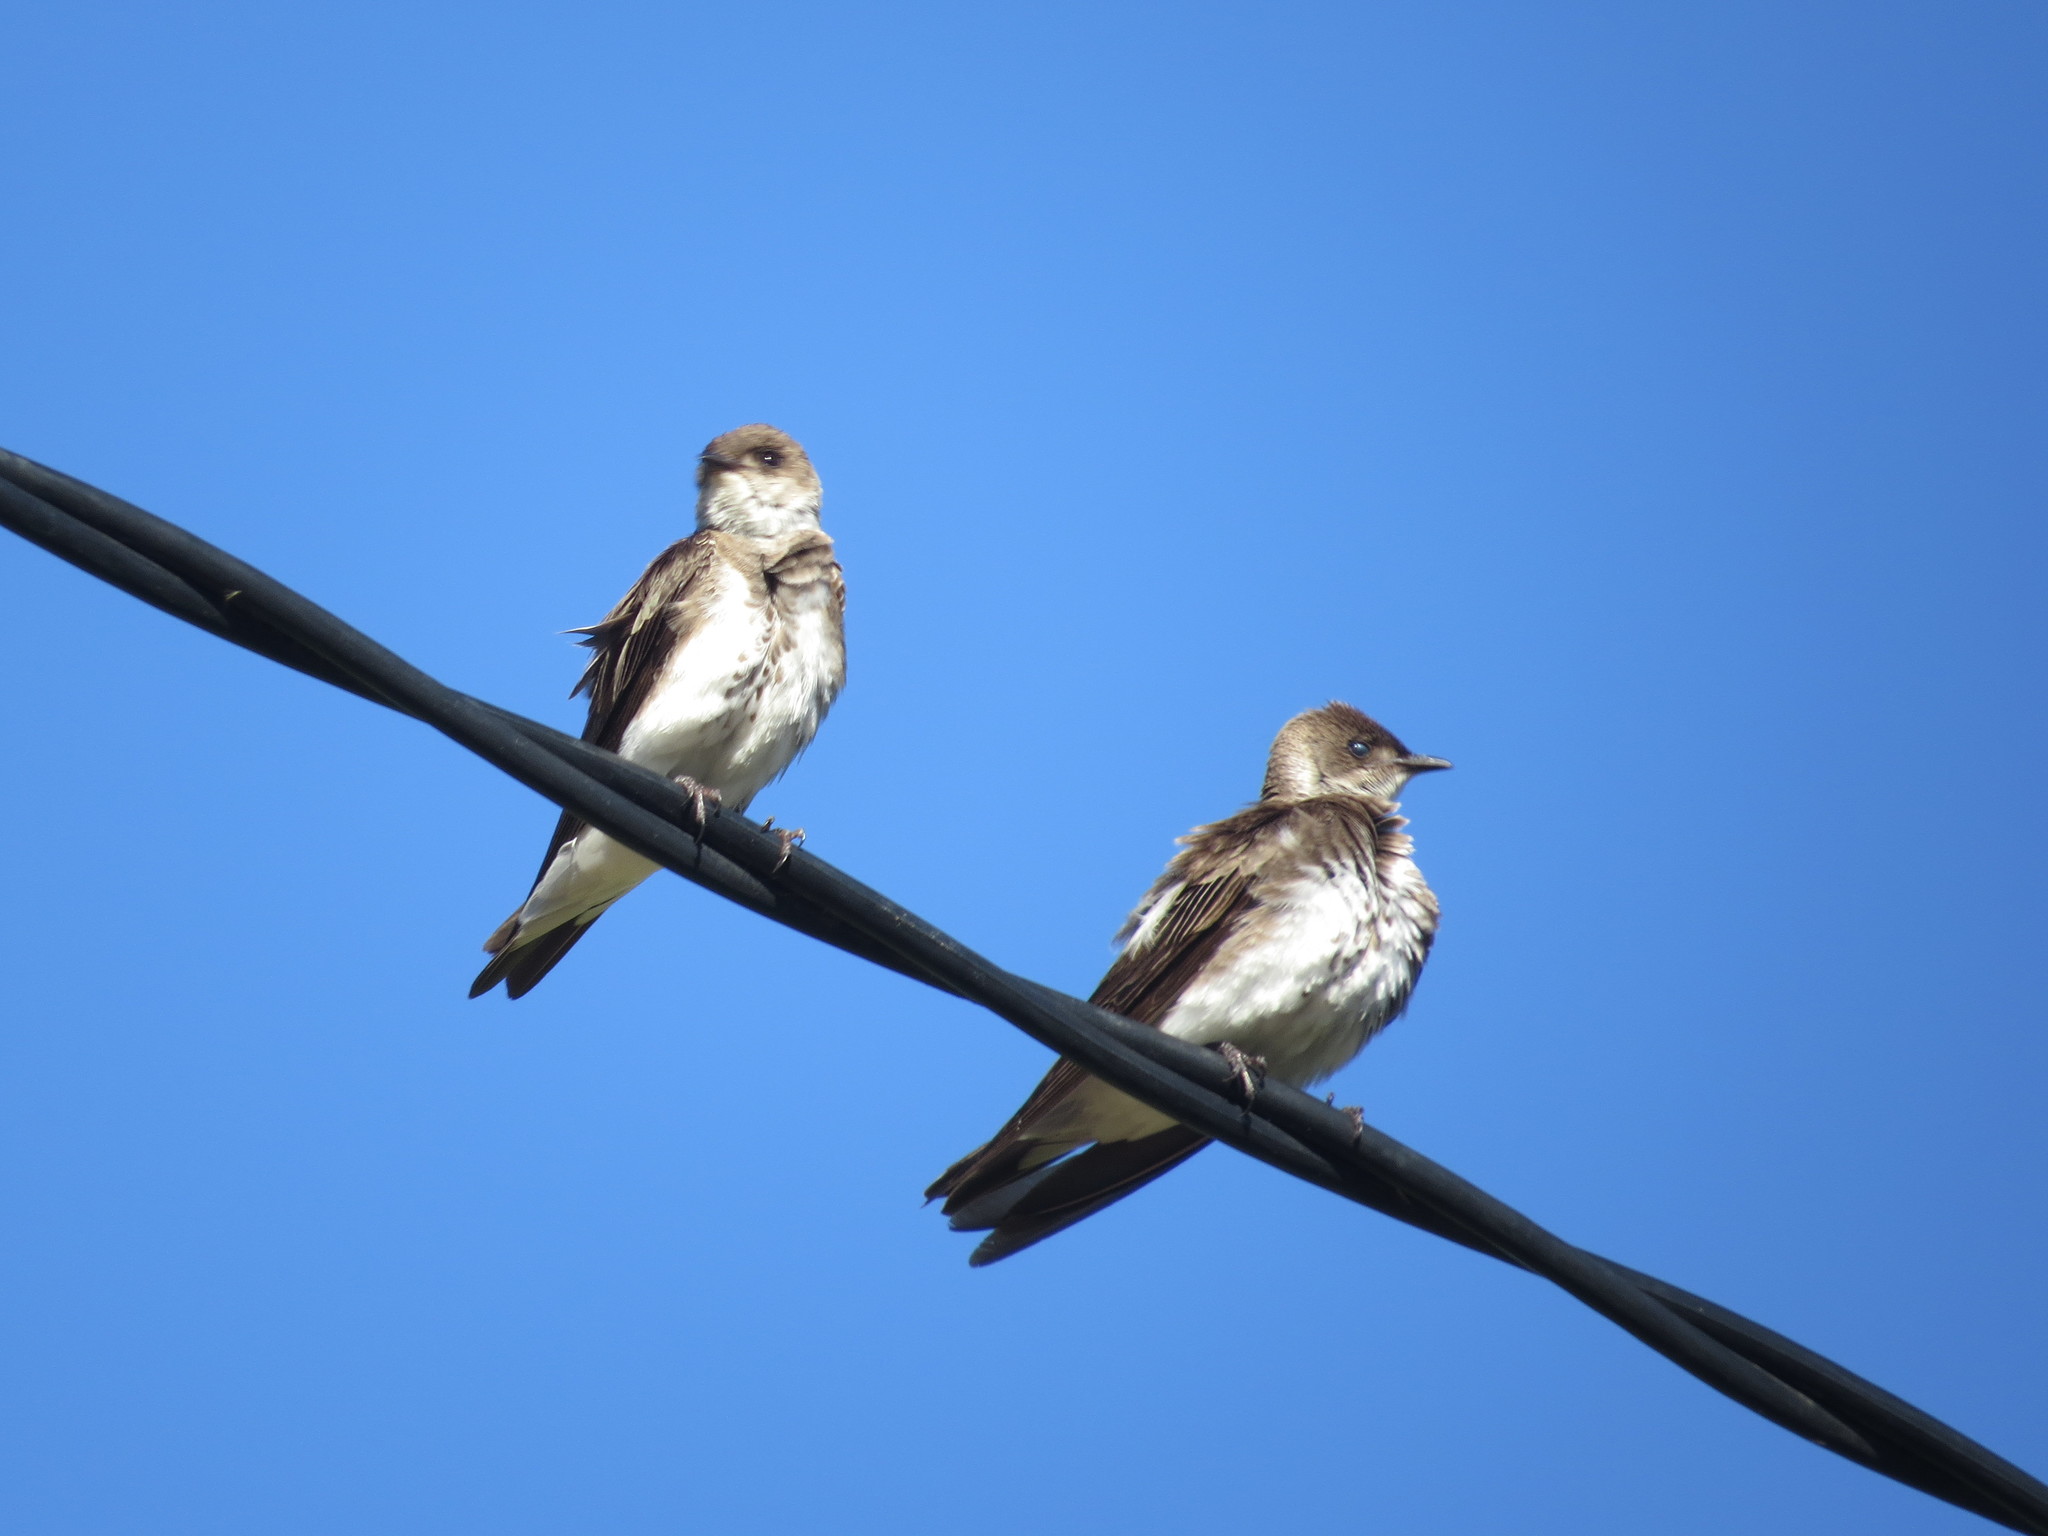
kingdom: Animalia
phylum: Chordata
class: Aves
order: Passeriformes
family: Hirundinidae
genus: Progne
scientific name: Progne tapera
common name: Brown-chested martin
